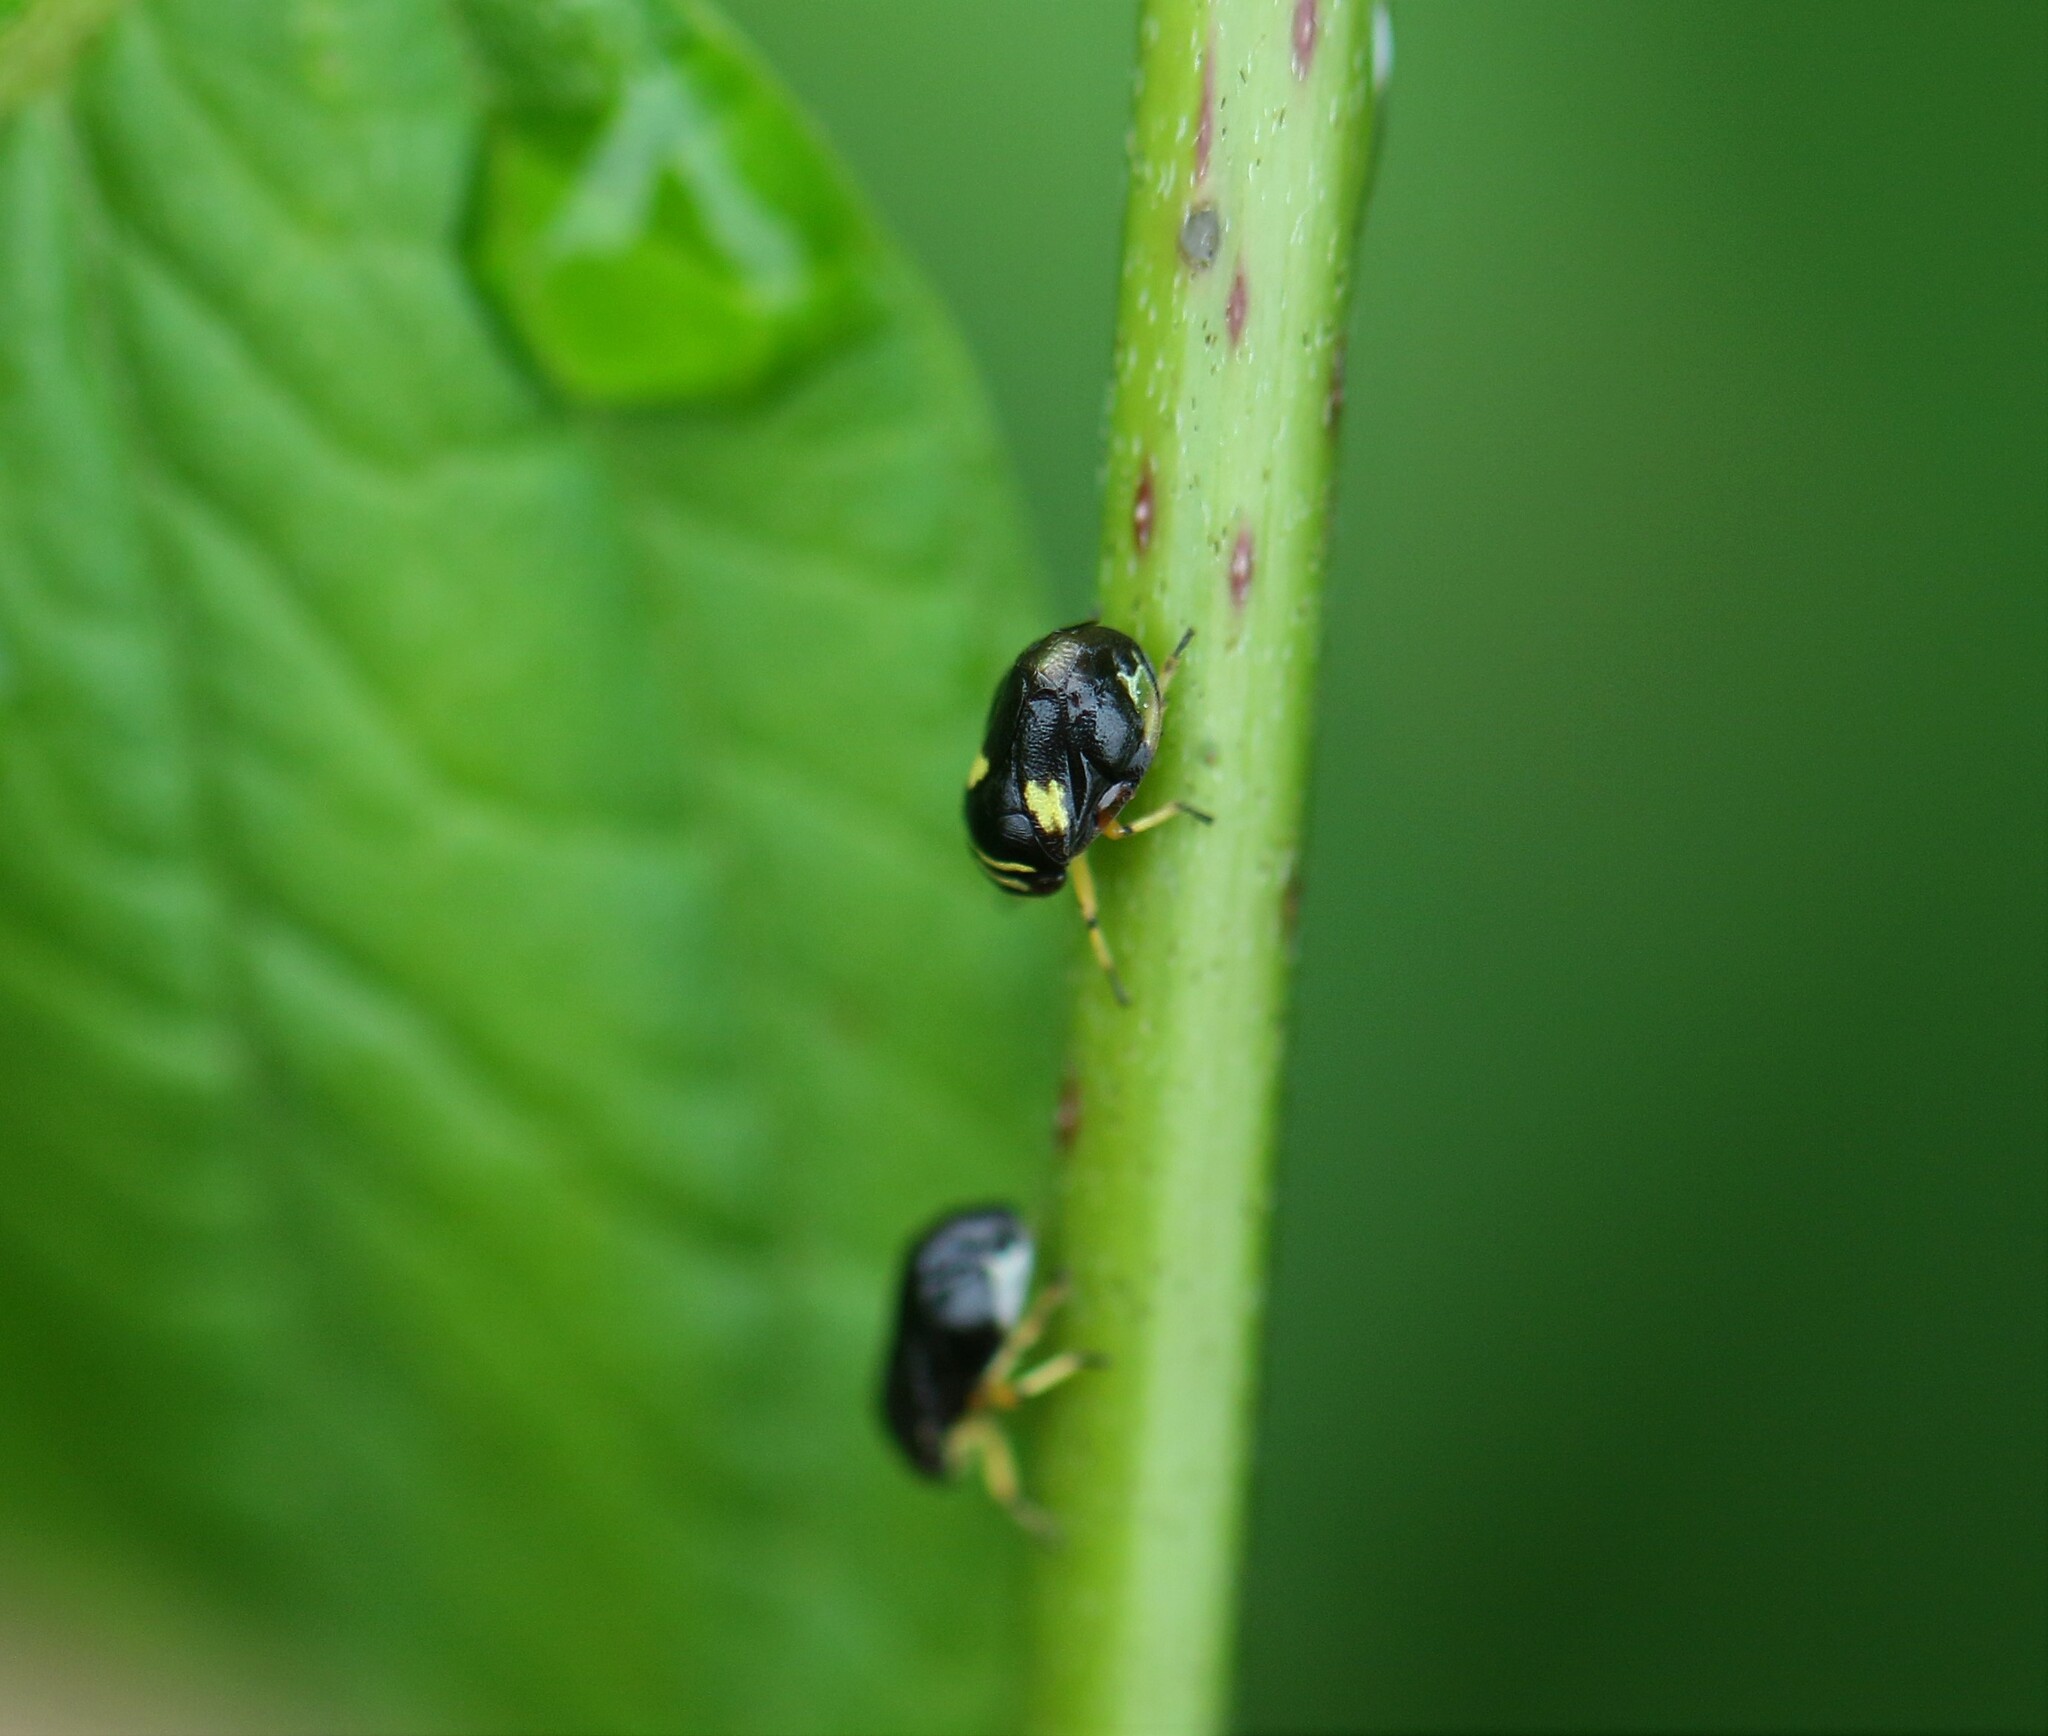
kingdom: Animalia
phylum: Arthropoda
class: Insecta
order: Hemiptera
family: Clastopteridae
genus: Clastoptera
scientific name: Clastoptera proteus
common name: Dogwood spittlebug
